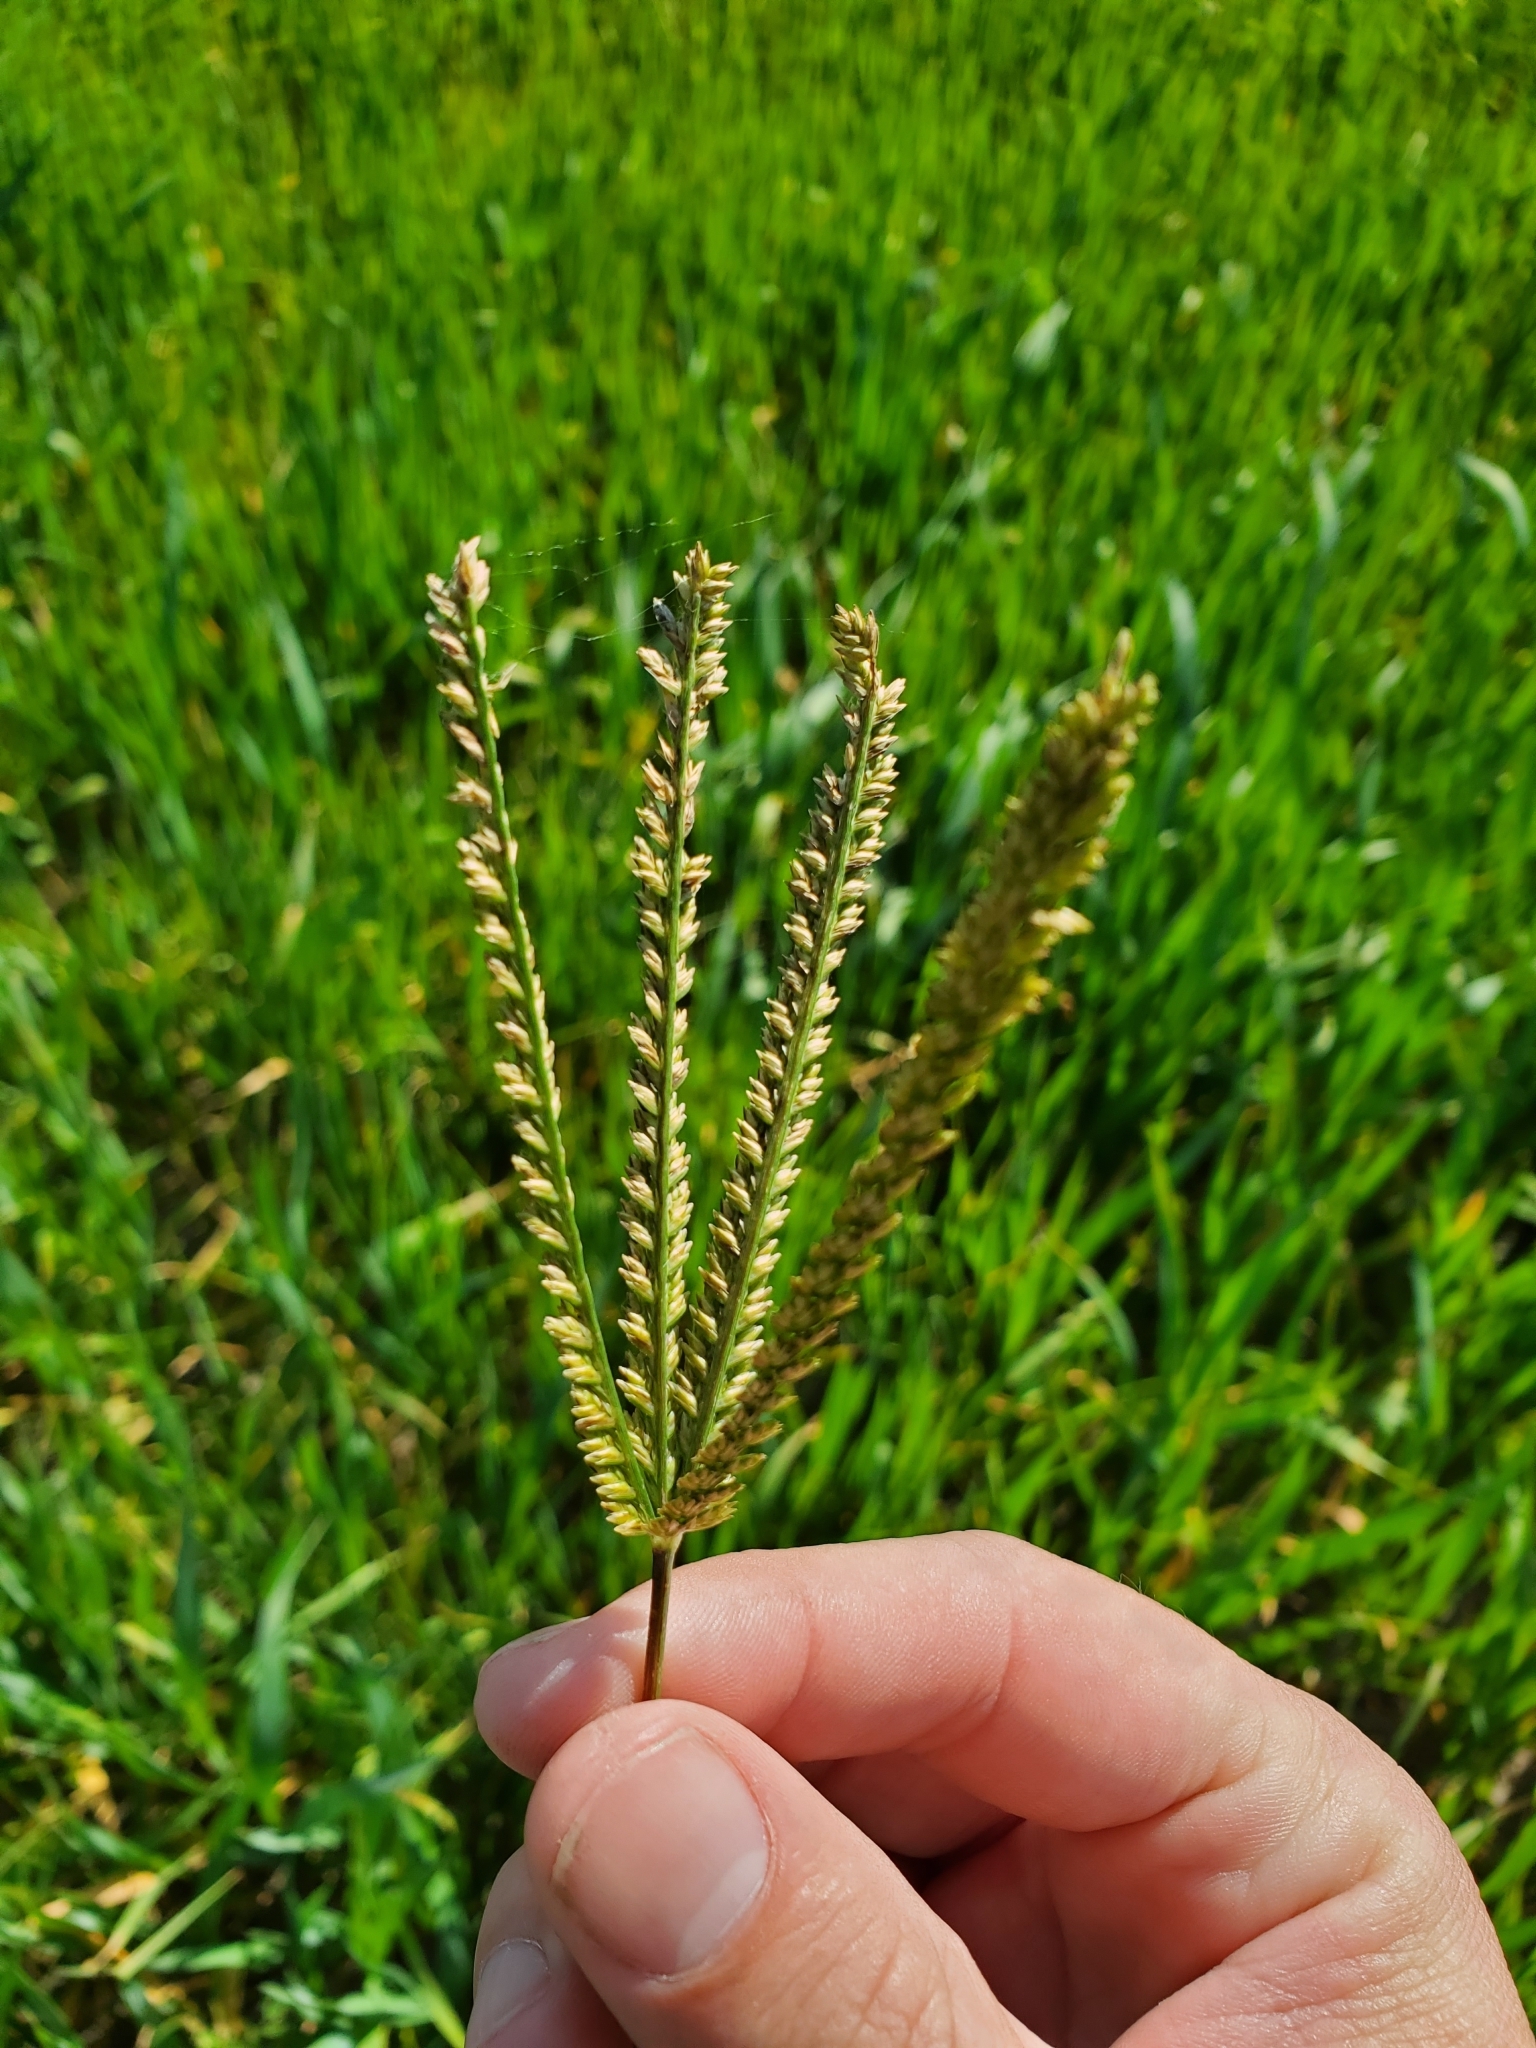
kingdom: Plantae
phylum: Tracheophyta
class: Liliopsida
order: Poales
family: Poaceae
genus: Eleusine
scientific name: Eleusine indica
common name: Yard-grass
